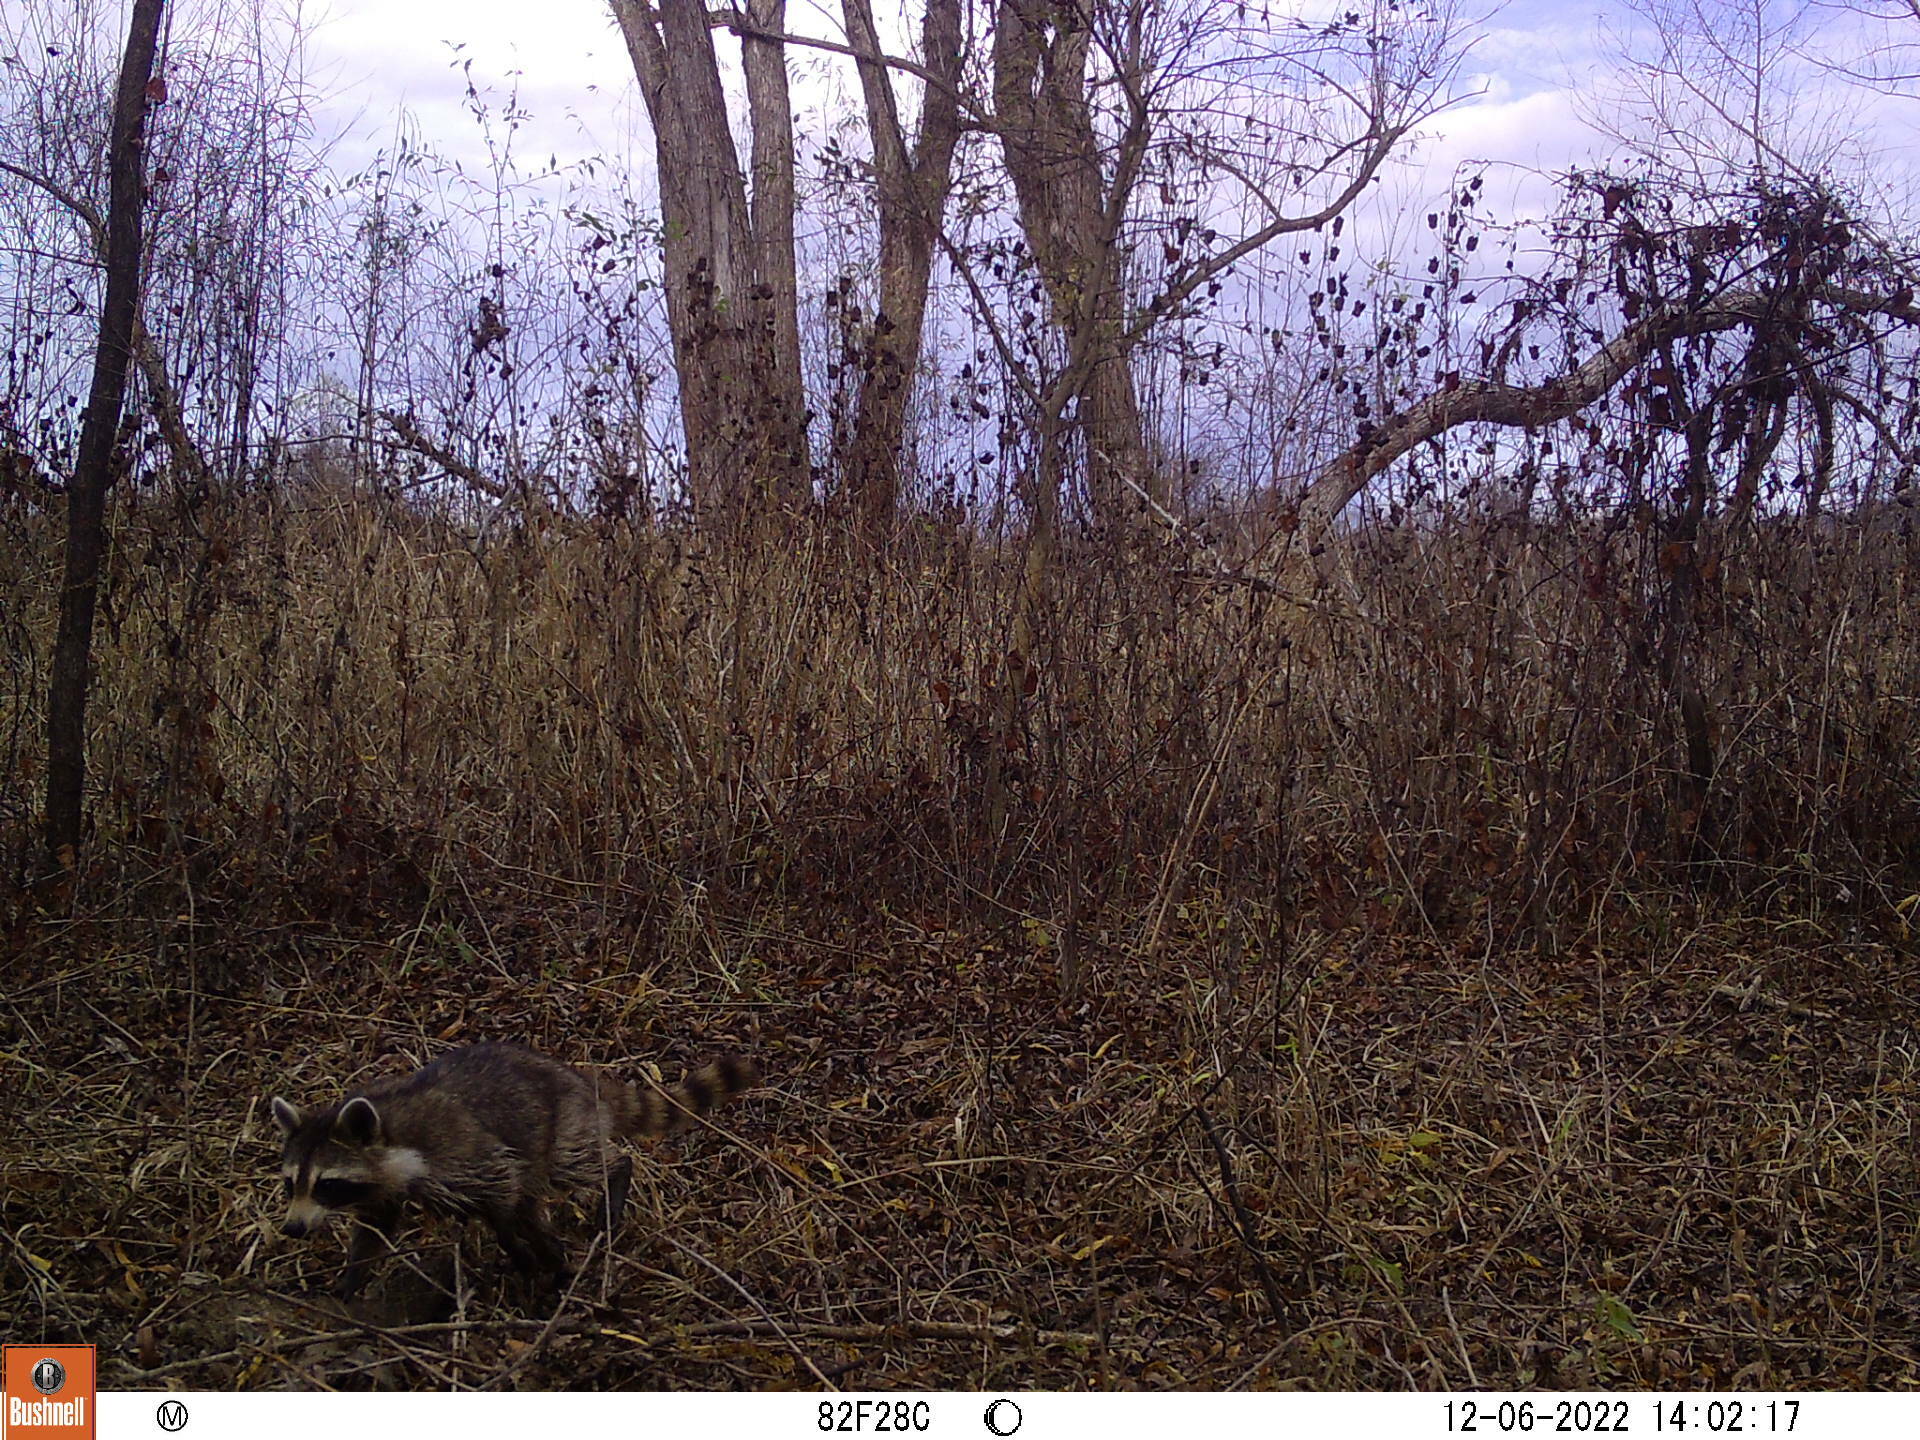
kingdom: Animalia
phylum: Chordata
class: Mammalia
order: Carnivora
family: Procyonidae
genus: Procyon
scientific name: Procyon lotor
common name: Raccoon
